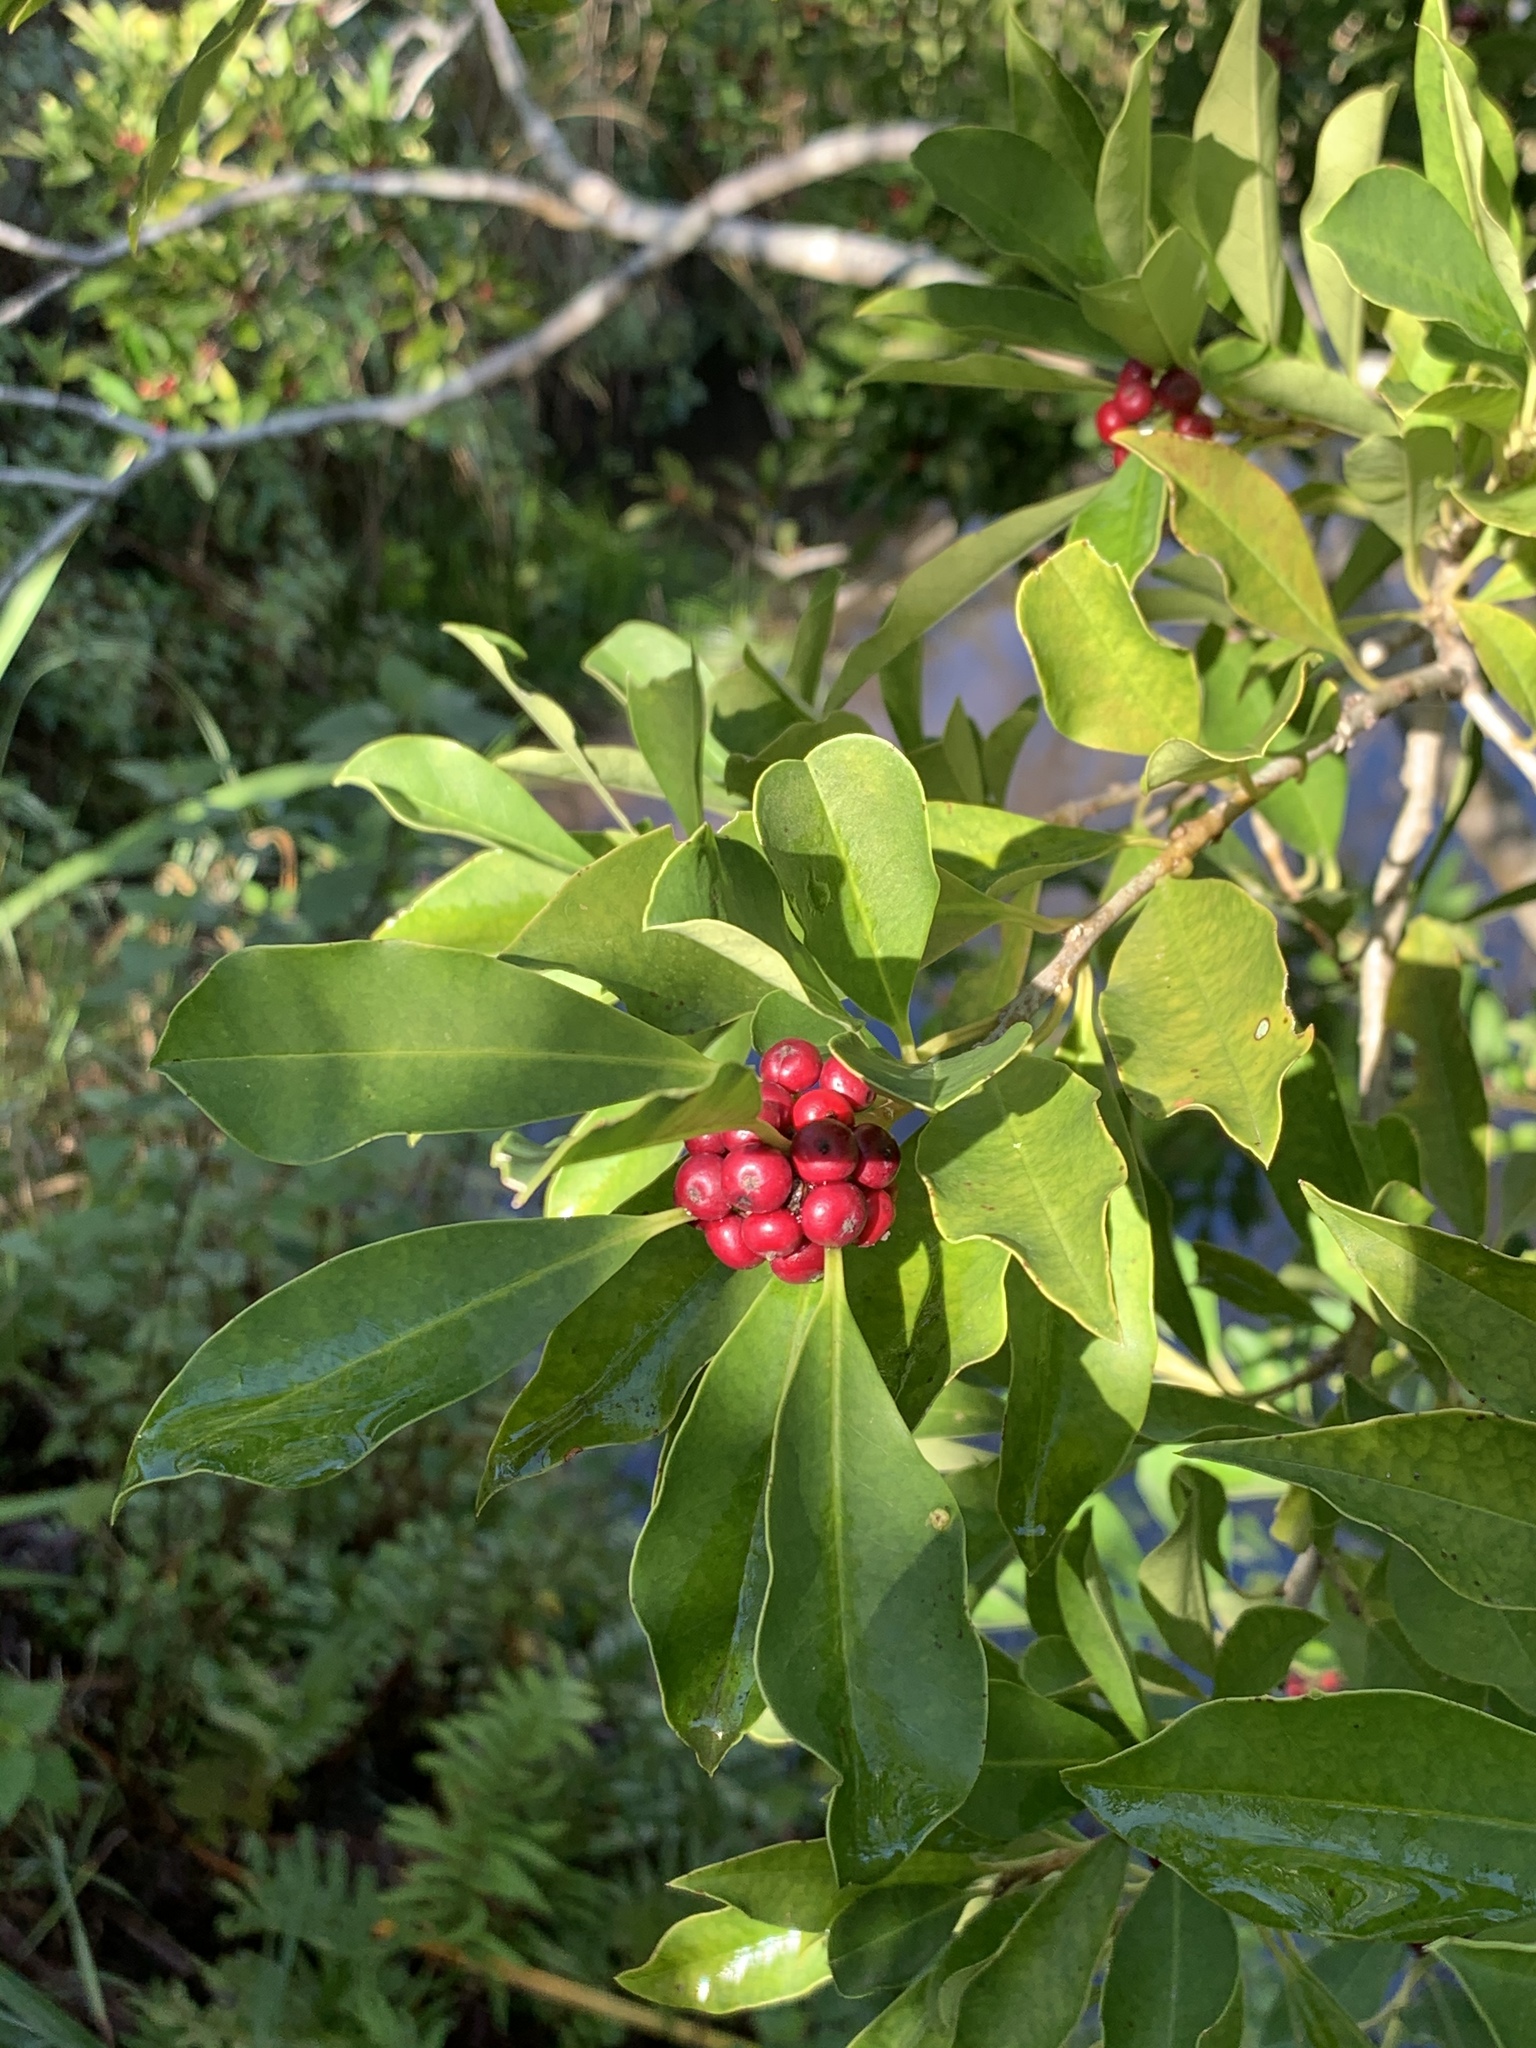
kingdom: Plantae
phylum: Tracheophyta
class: Magnoliopsida
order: Aquifoliales
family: Aquifoliaceae
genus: Ilex
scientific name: Ilex mitis
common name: African holly
